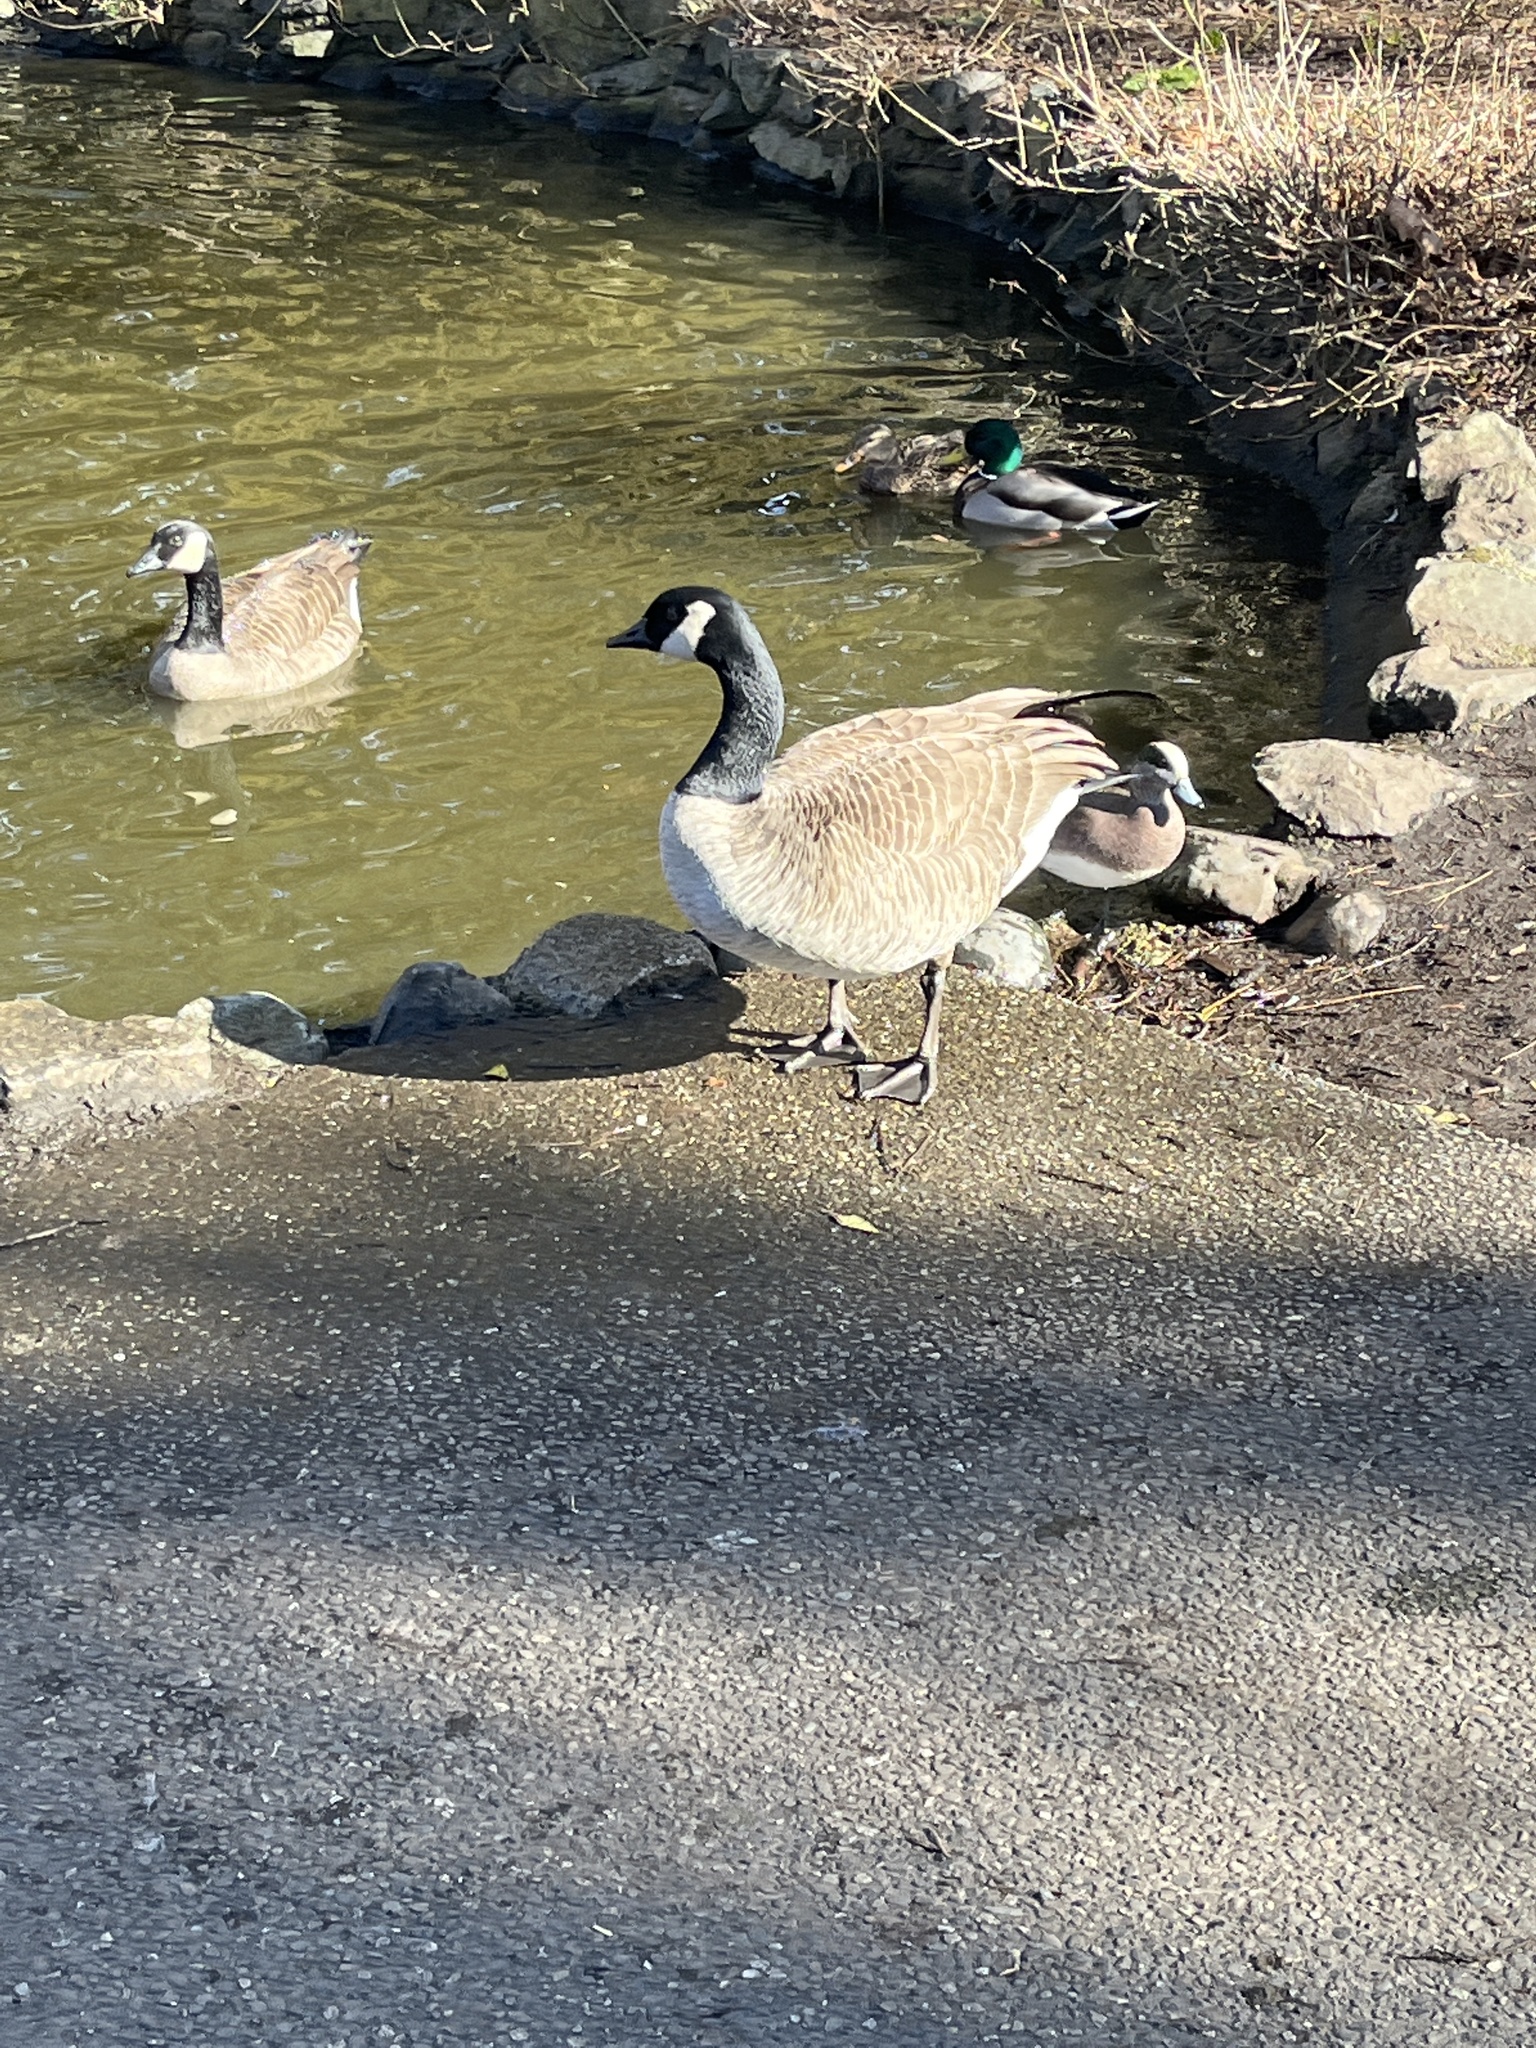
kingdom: Animalia
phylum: Chordata
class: Aves
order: Anseriformes
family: Anatidae
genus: Branta
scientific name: Branta canadensis
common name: Canada goose
